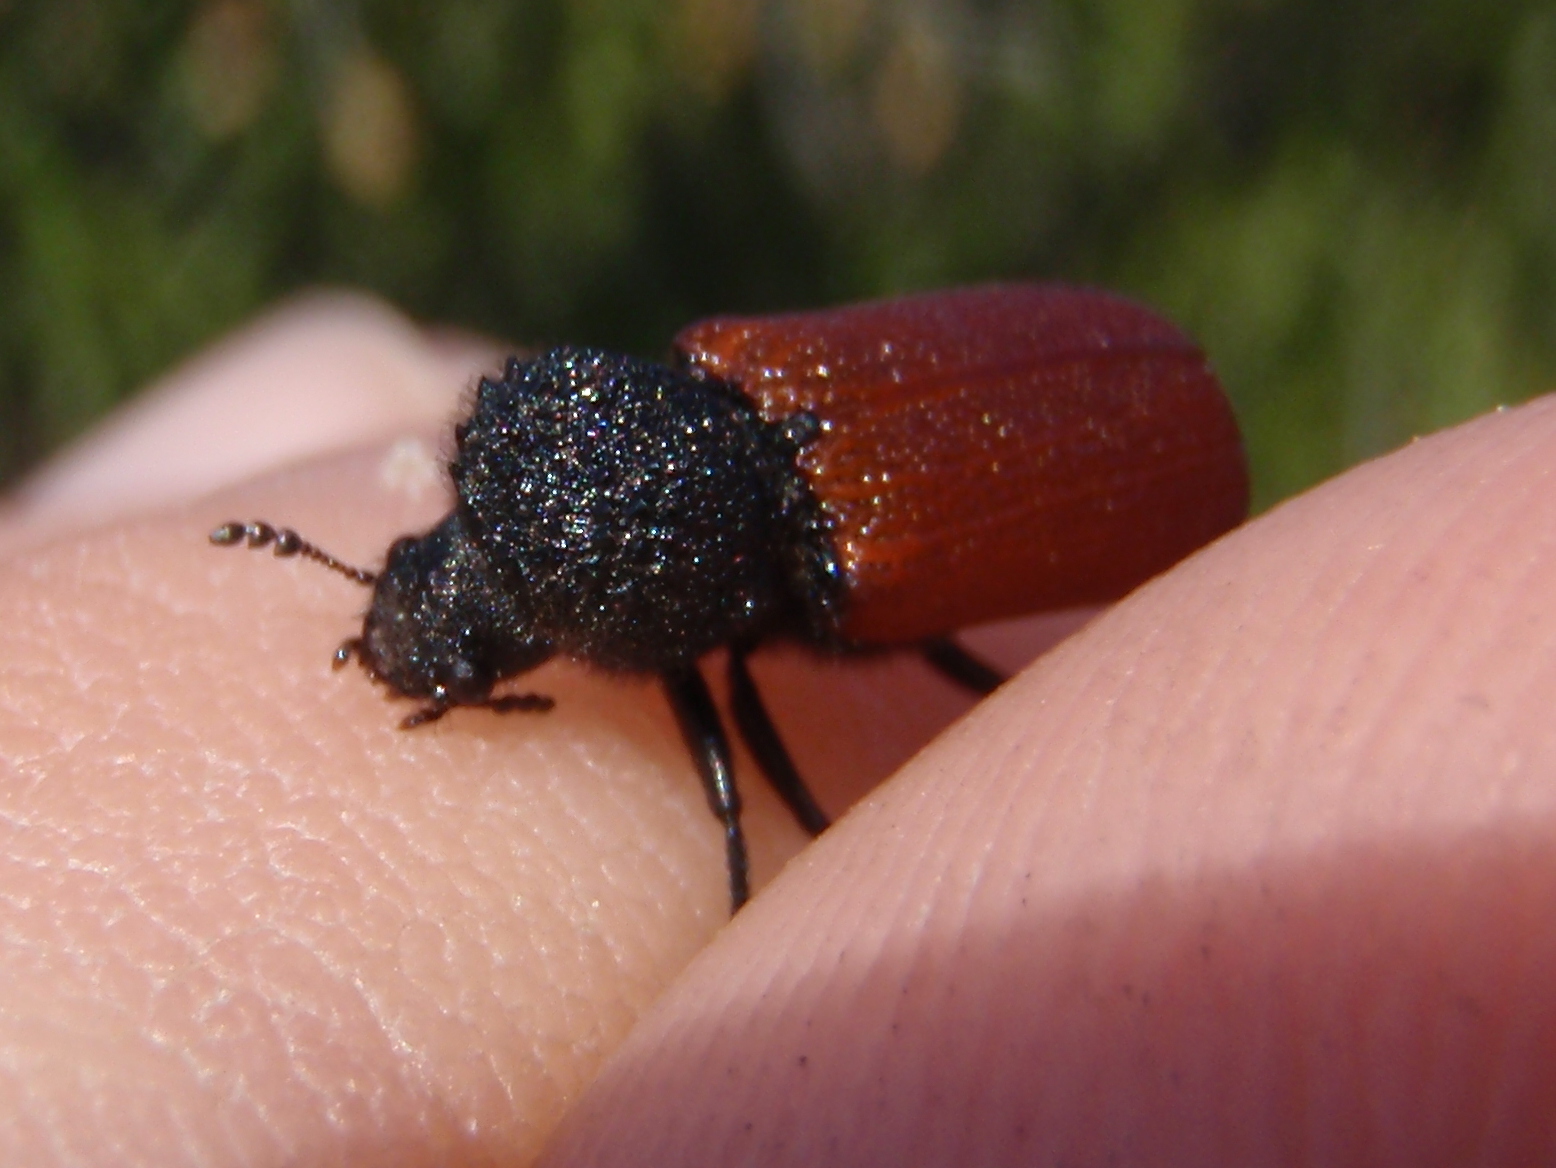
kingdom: Animalia
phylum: Arthropoda
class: Insecta
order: Coleoptera
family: Bostrichidae
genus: Bostrichus
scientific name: Bostrichus capucinus
